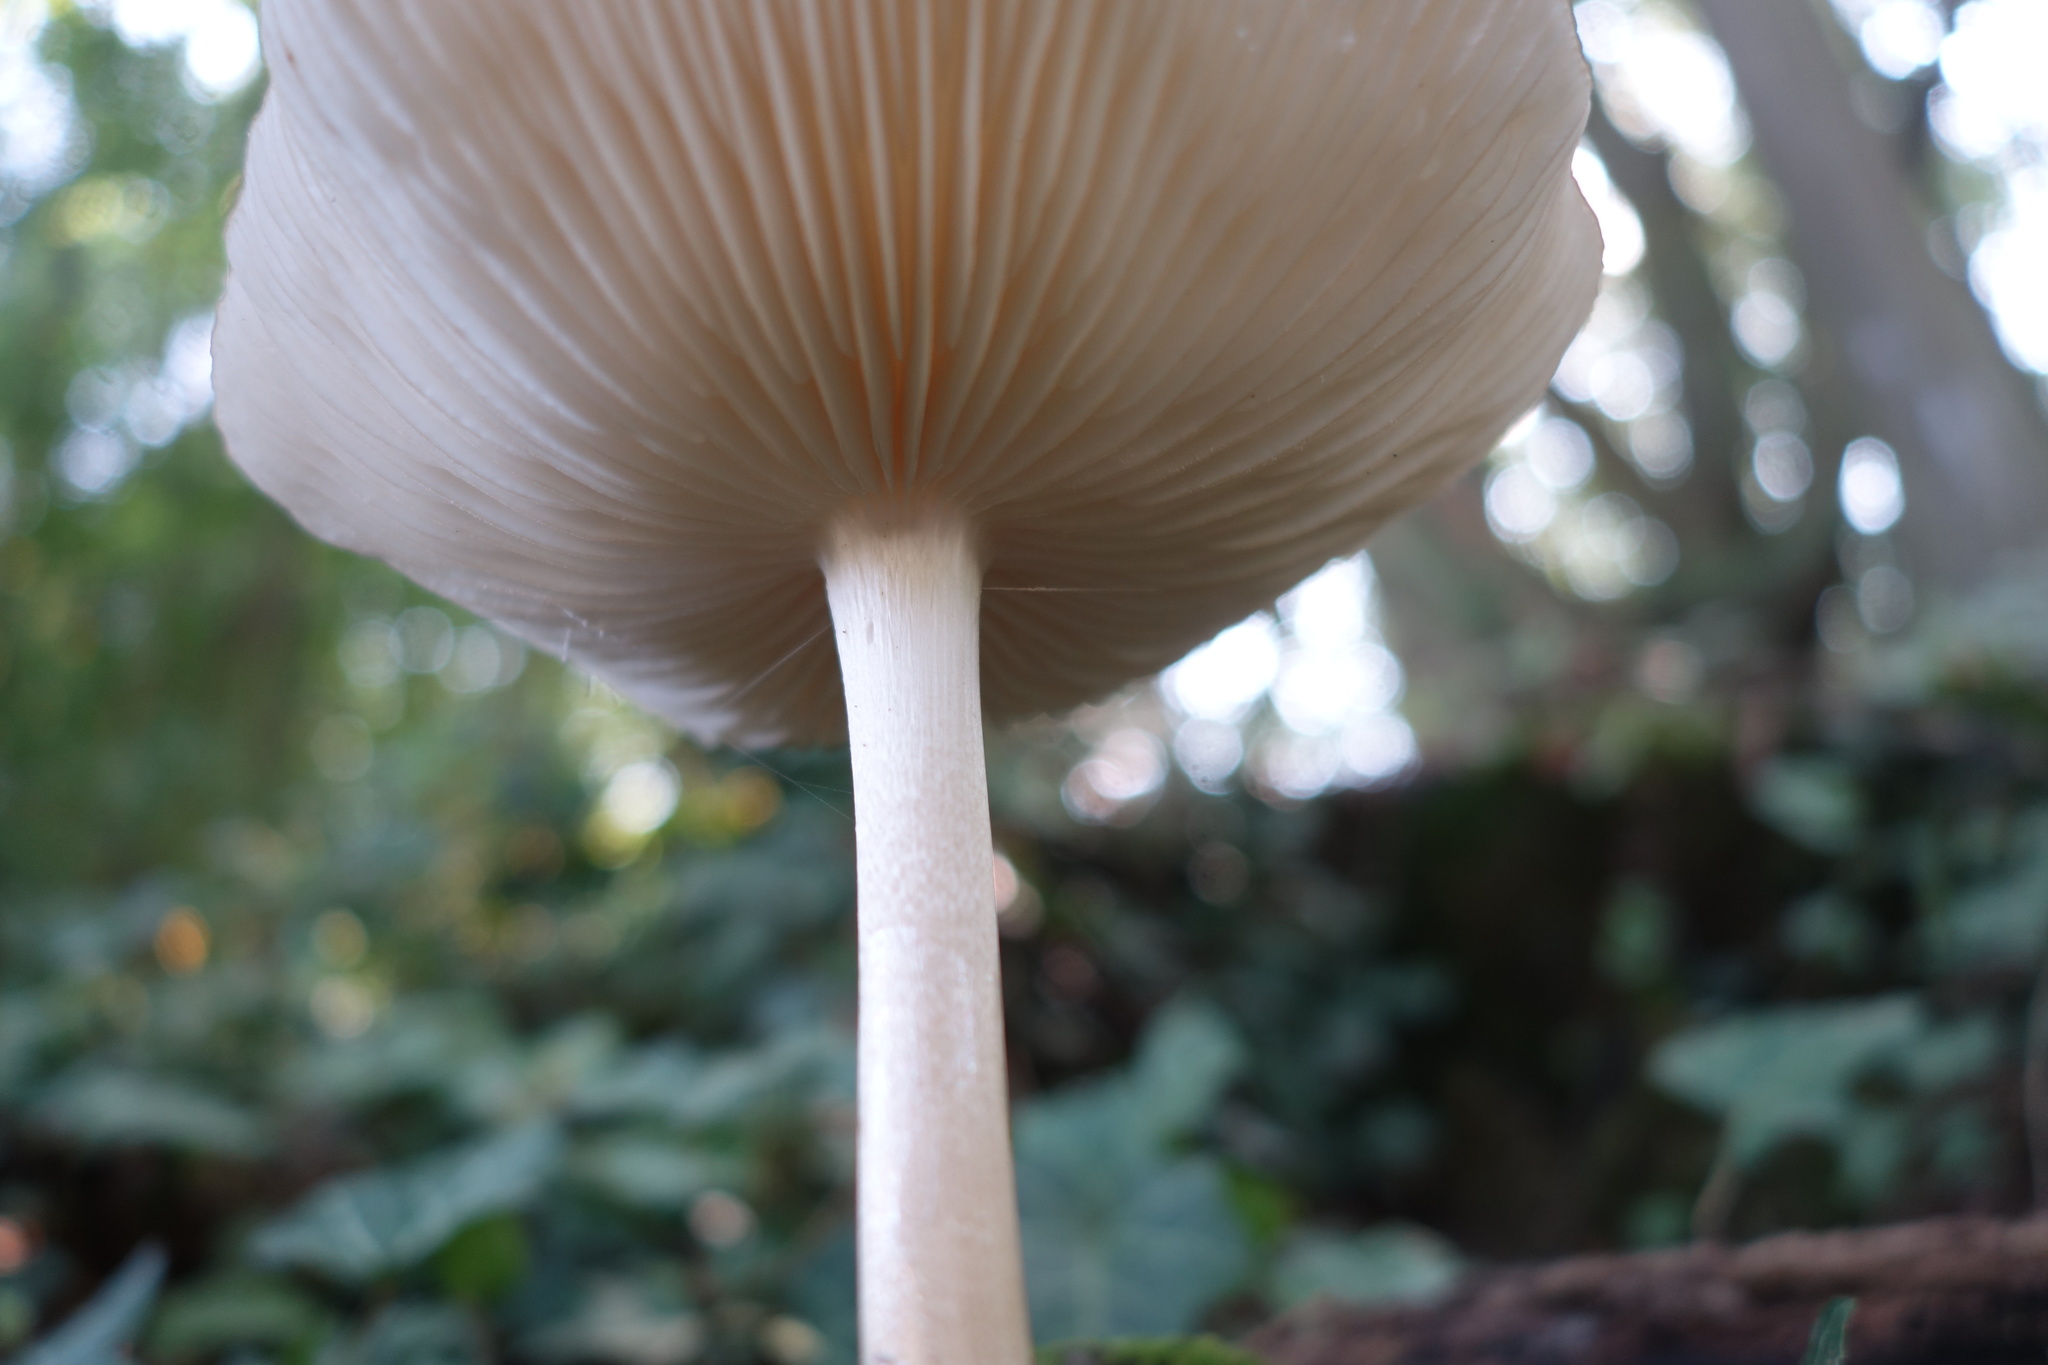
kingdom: Fungi
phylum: Basidiomycota
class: Agaricomycetes
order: Agaricales
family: Physalacriaceae
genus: Hymenopellis
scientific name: Hymenopellis radicata
